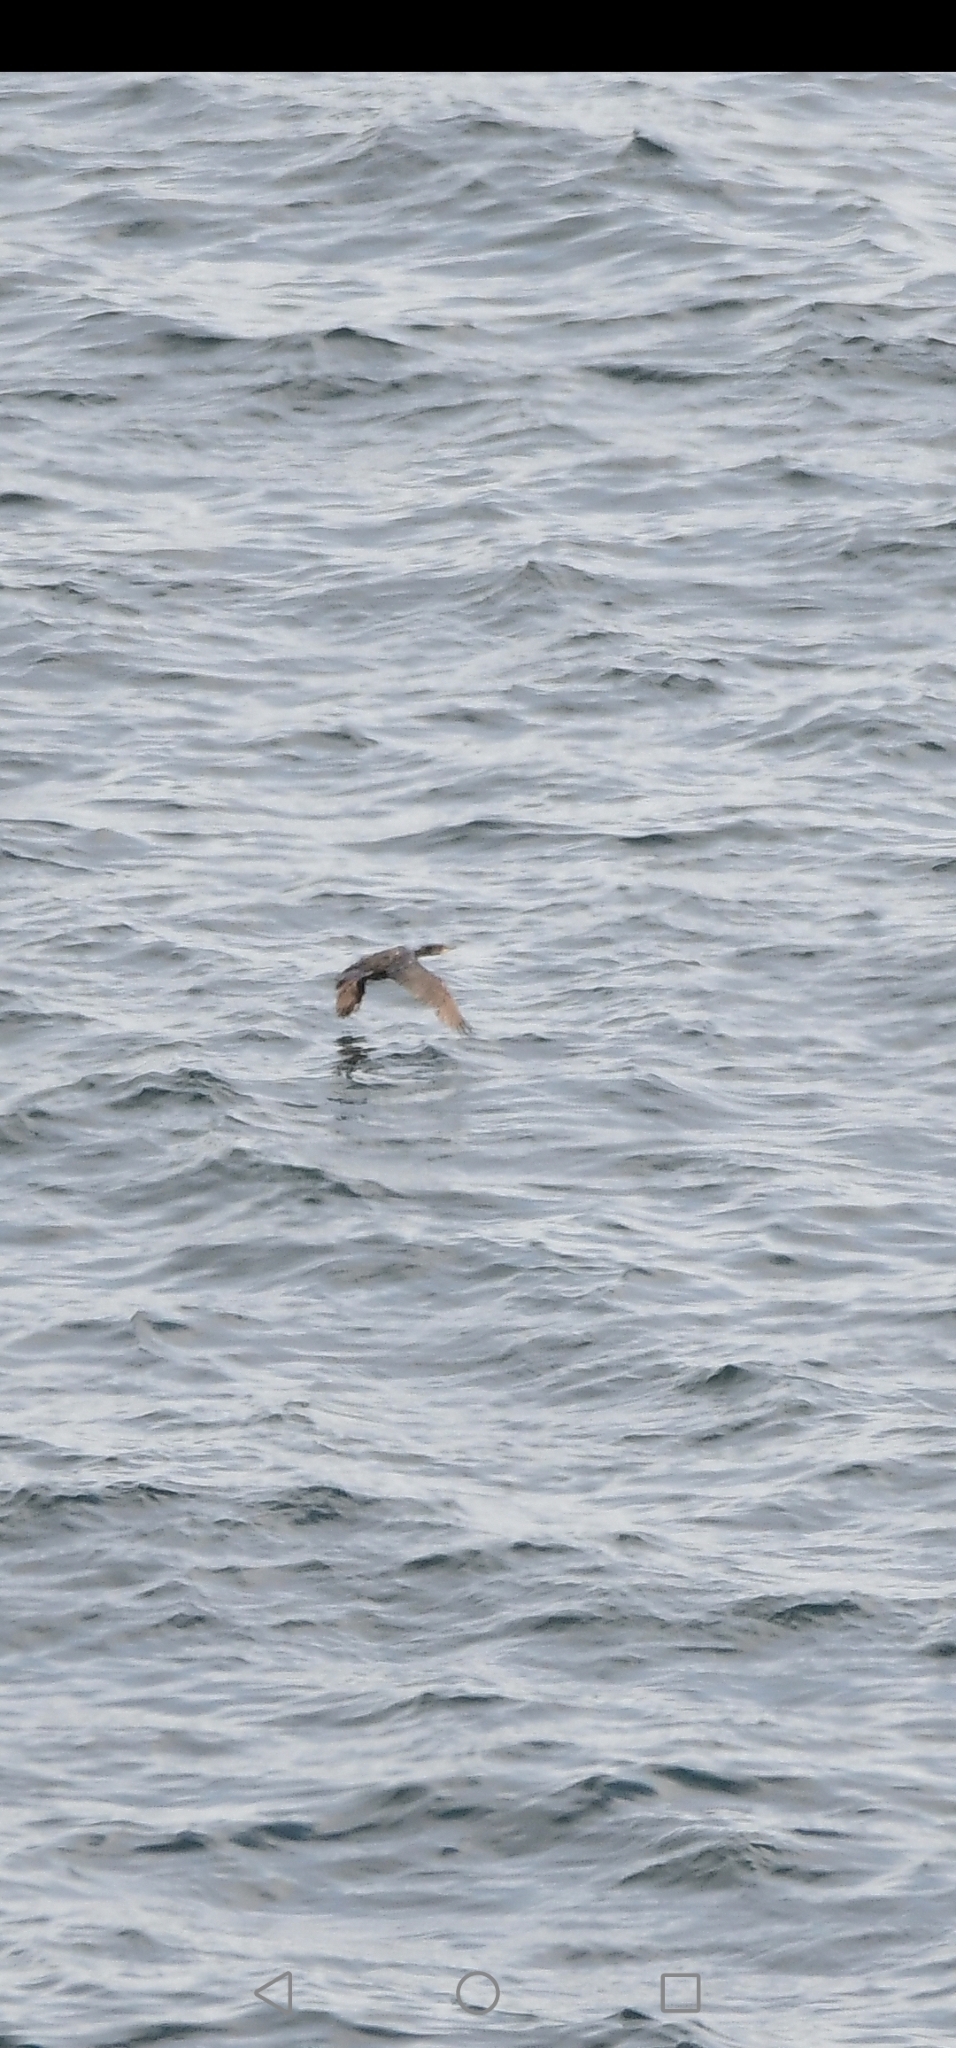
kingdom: Animalia
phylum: Chordata
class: Aves
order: Suliformes
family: Phalacrocoracidae
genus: Phalacrocorax
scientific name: Phalacrocorax carbo
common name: Great cormorant
